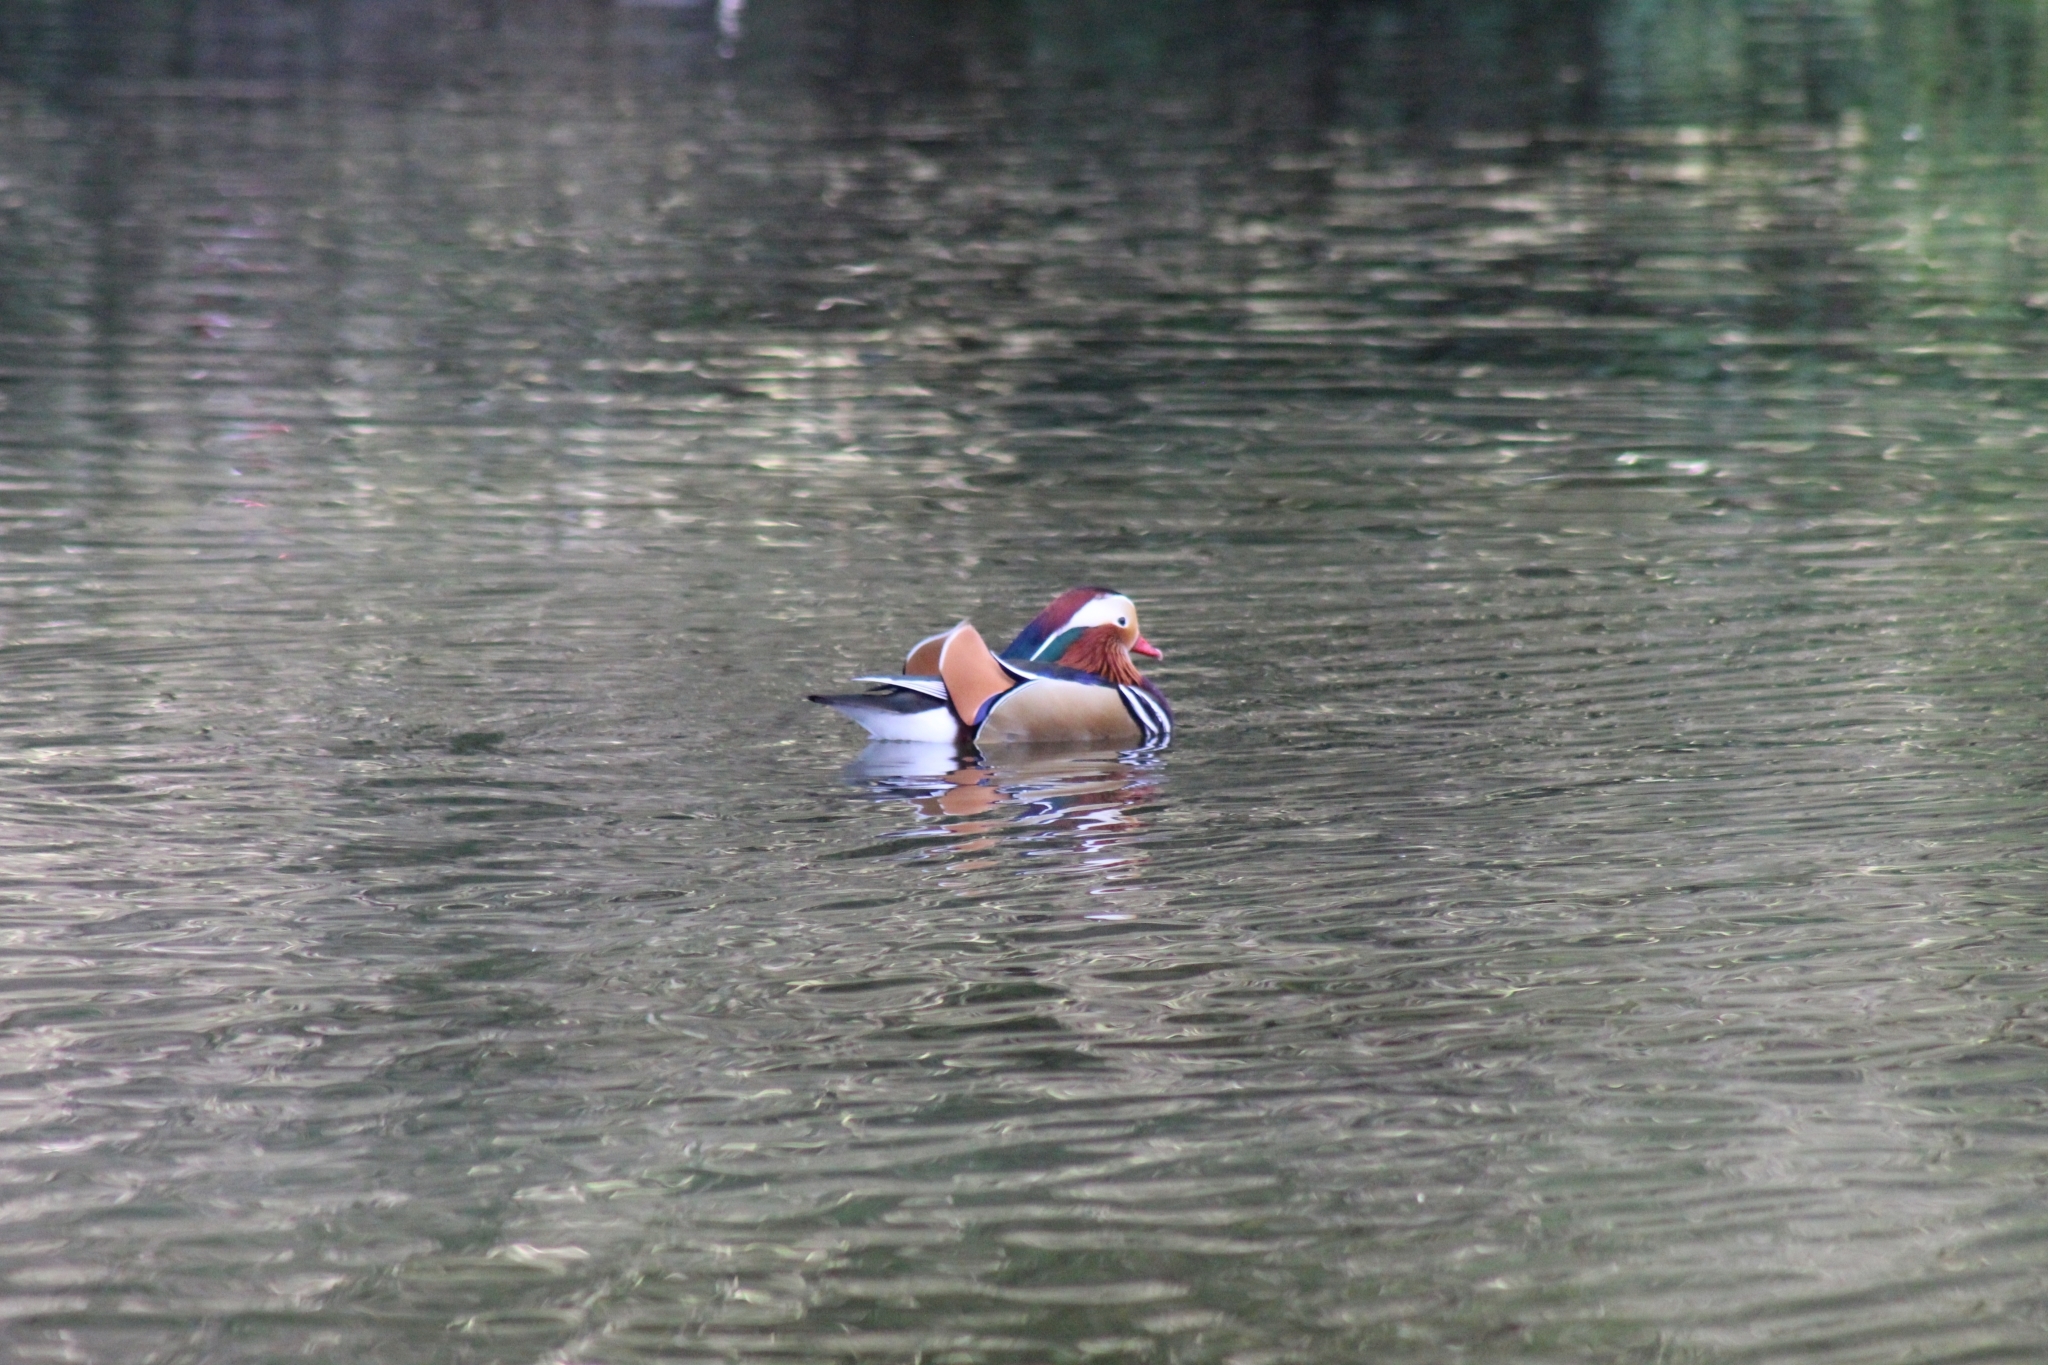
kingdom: Animalia
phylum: Chordata
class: Aves
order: Anseriformes
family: Anatidae
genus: Aix
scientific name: Aix galericulata
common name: Mandarin duck
